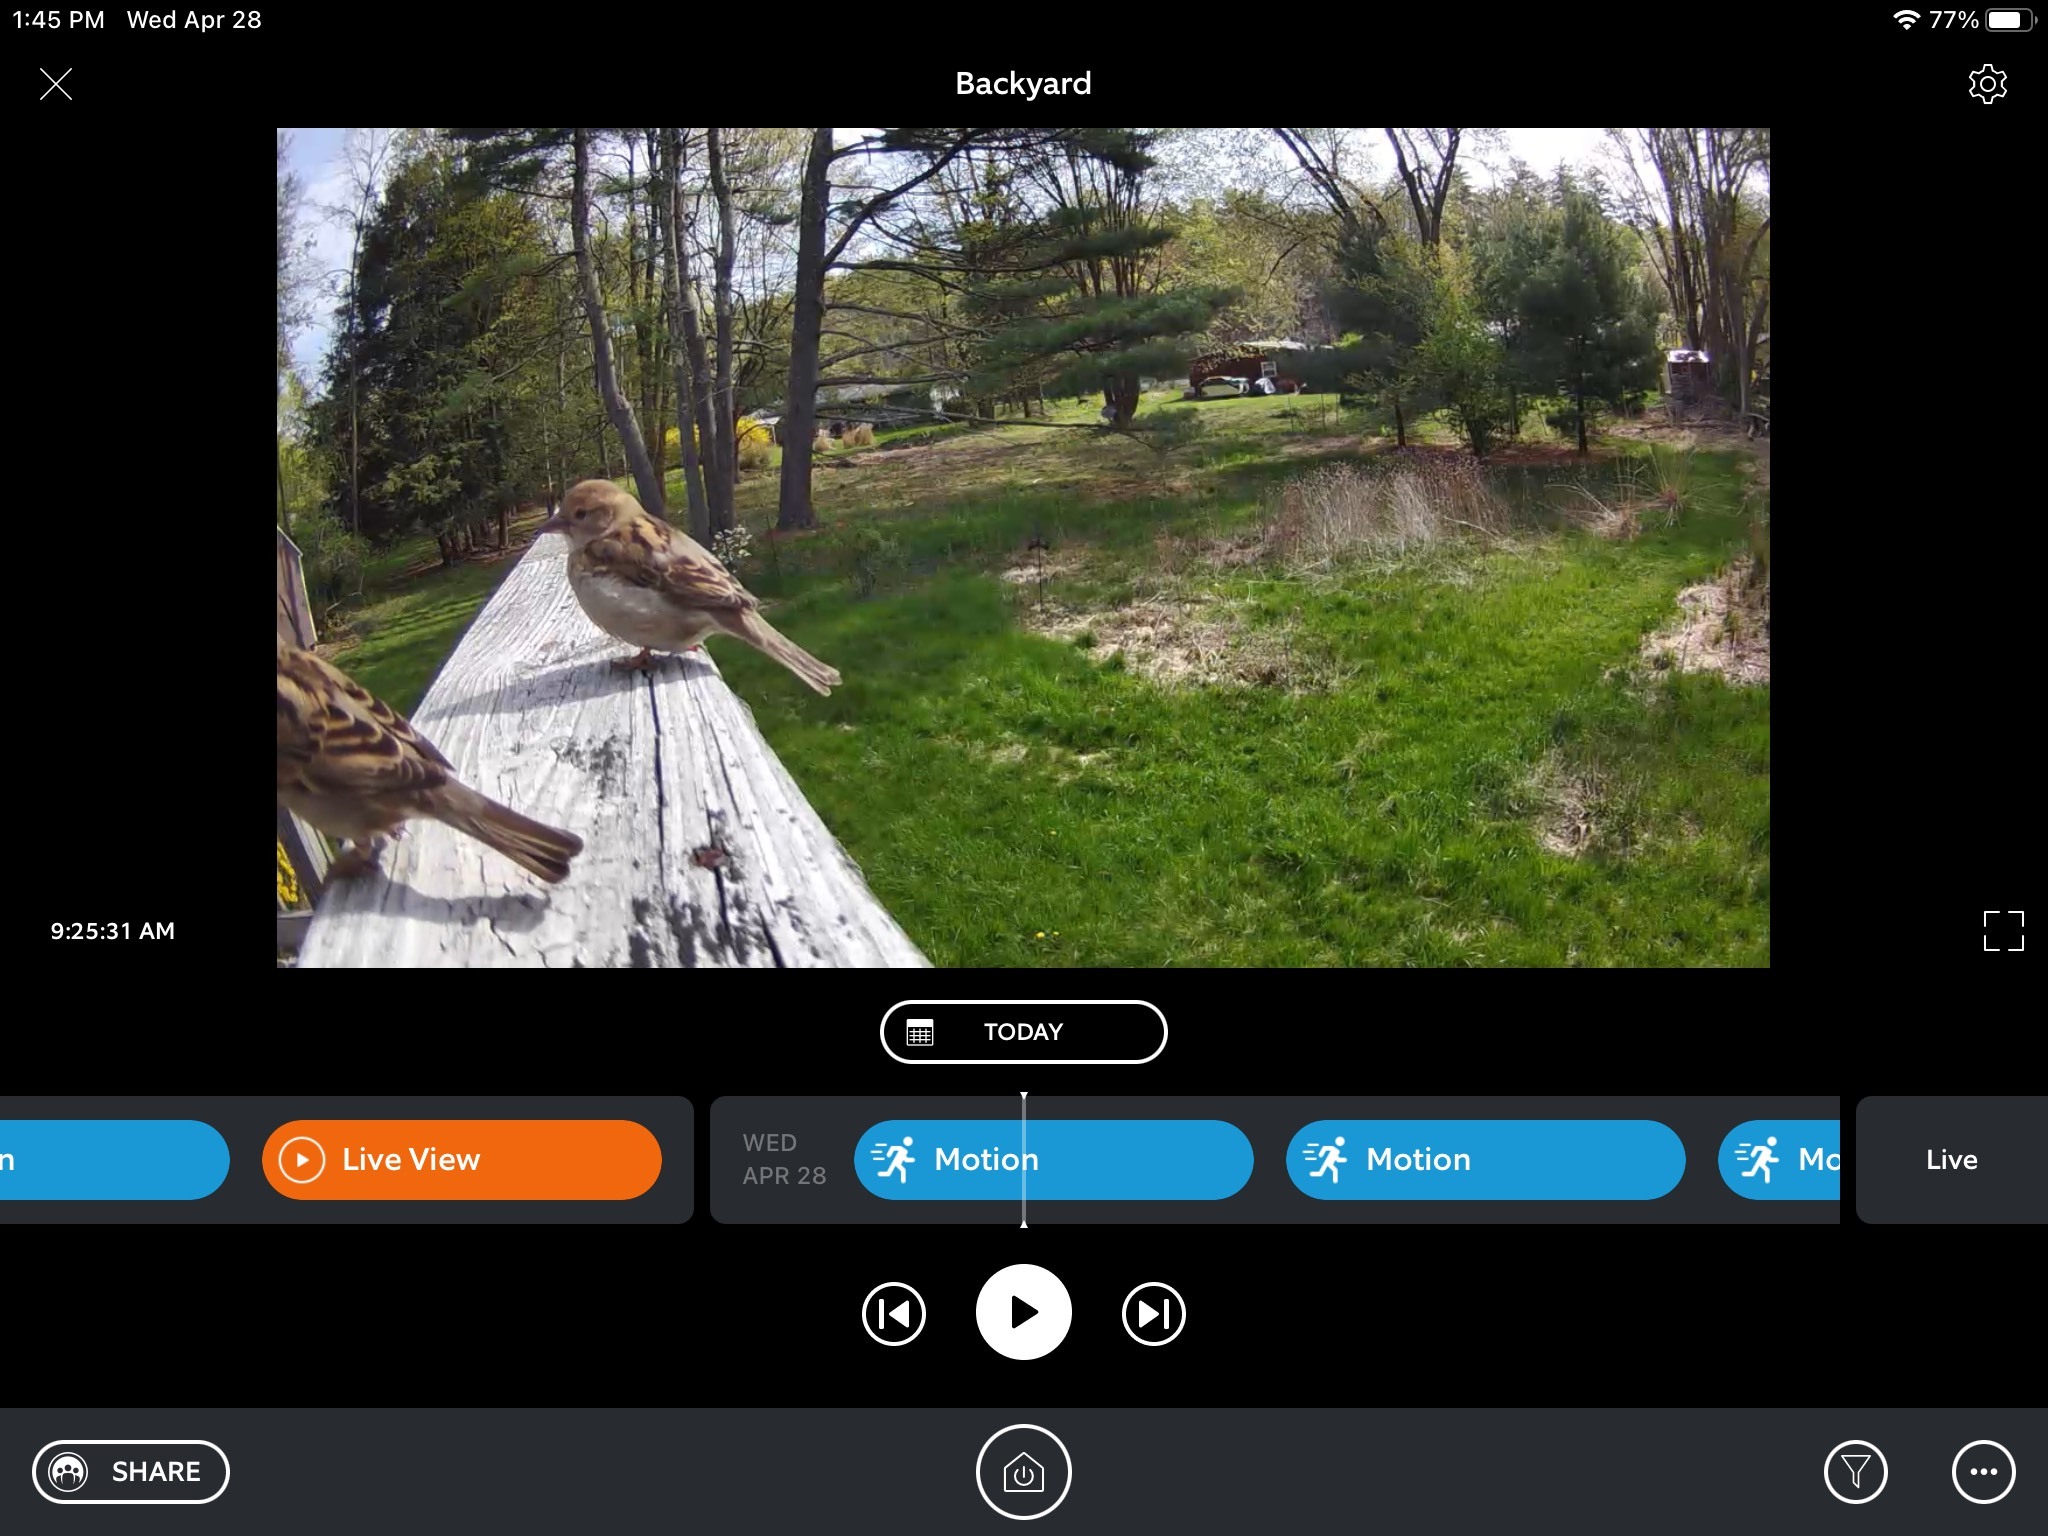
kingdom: Animalia
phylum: Chordata
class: Aves
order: Passeriformes
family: Passeridae
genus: Passer
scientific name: Passer domesticus
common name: House sparrow
